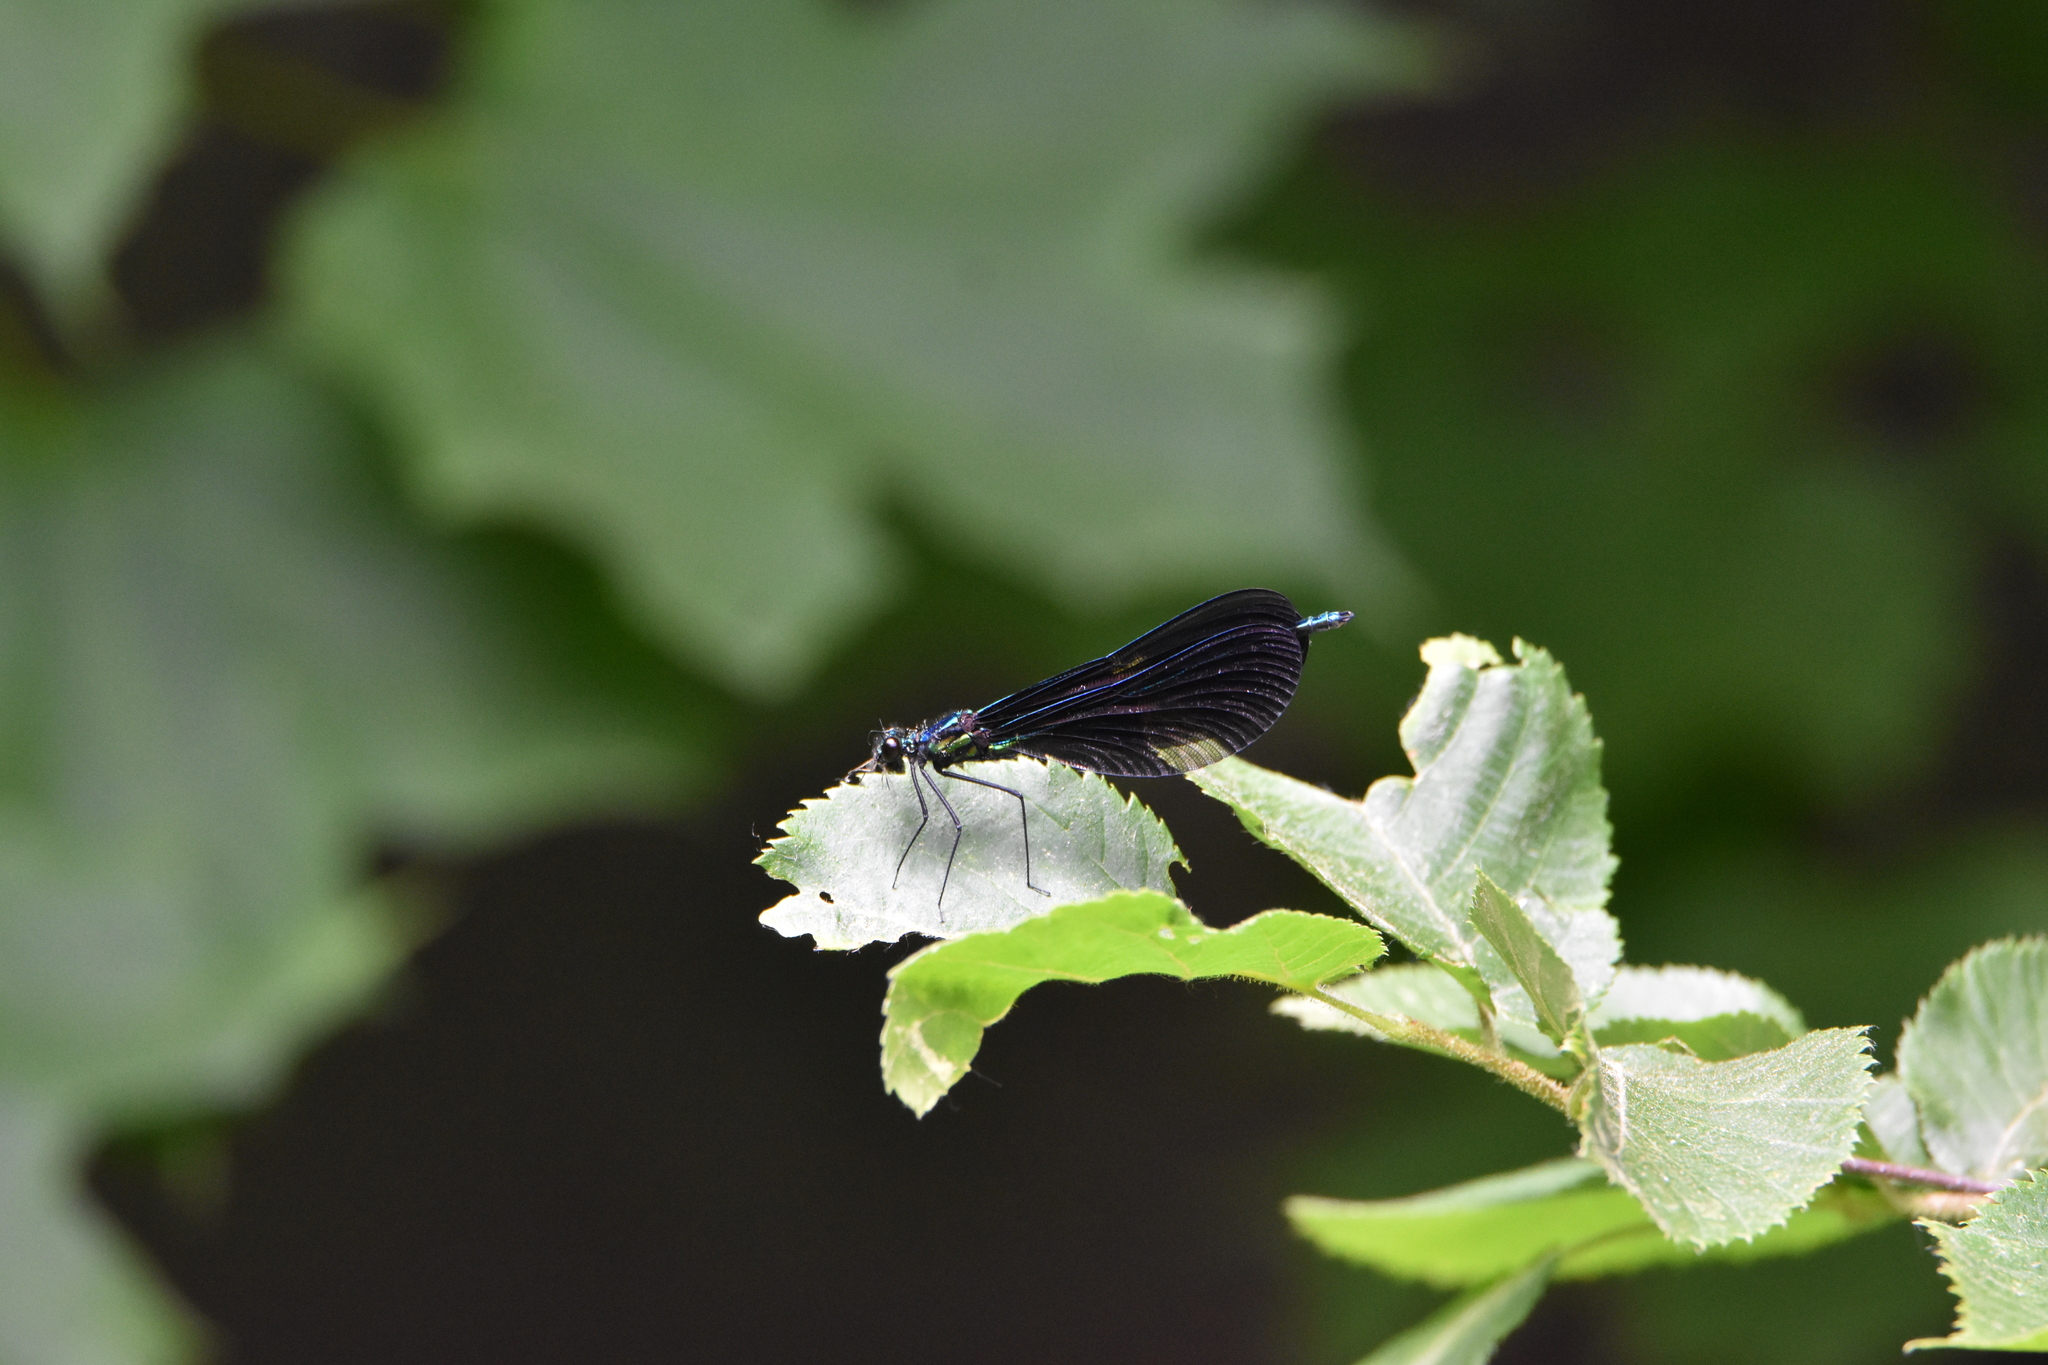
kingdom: Animalia
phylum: Arthropoda
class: Insecta
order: Odonata
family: Calopterygidae
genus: Calopteryx
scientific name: Calopteryx maculata
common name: Ebony jewelwing
